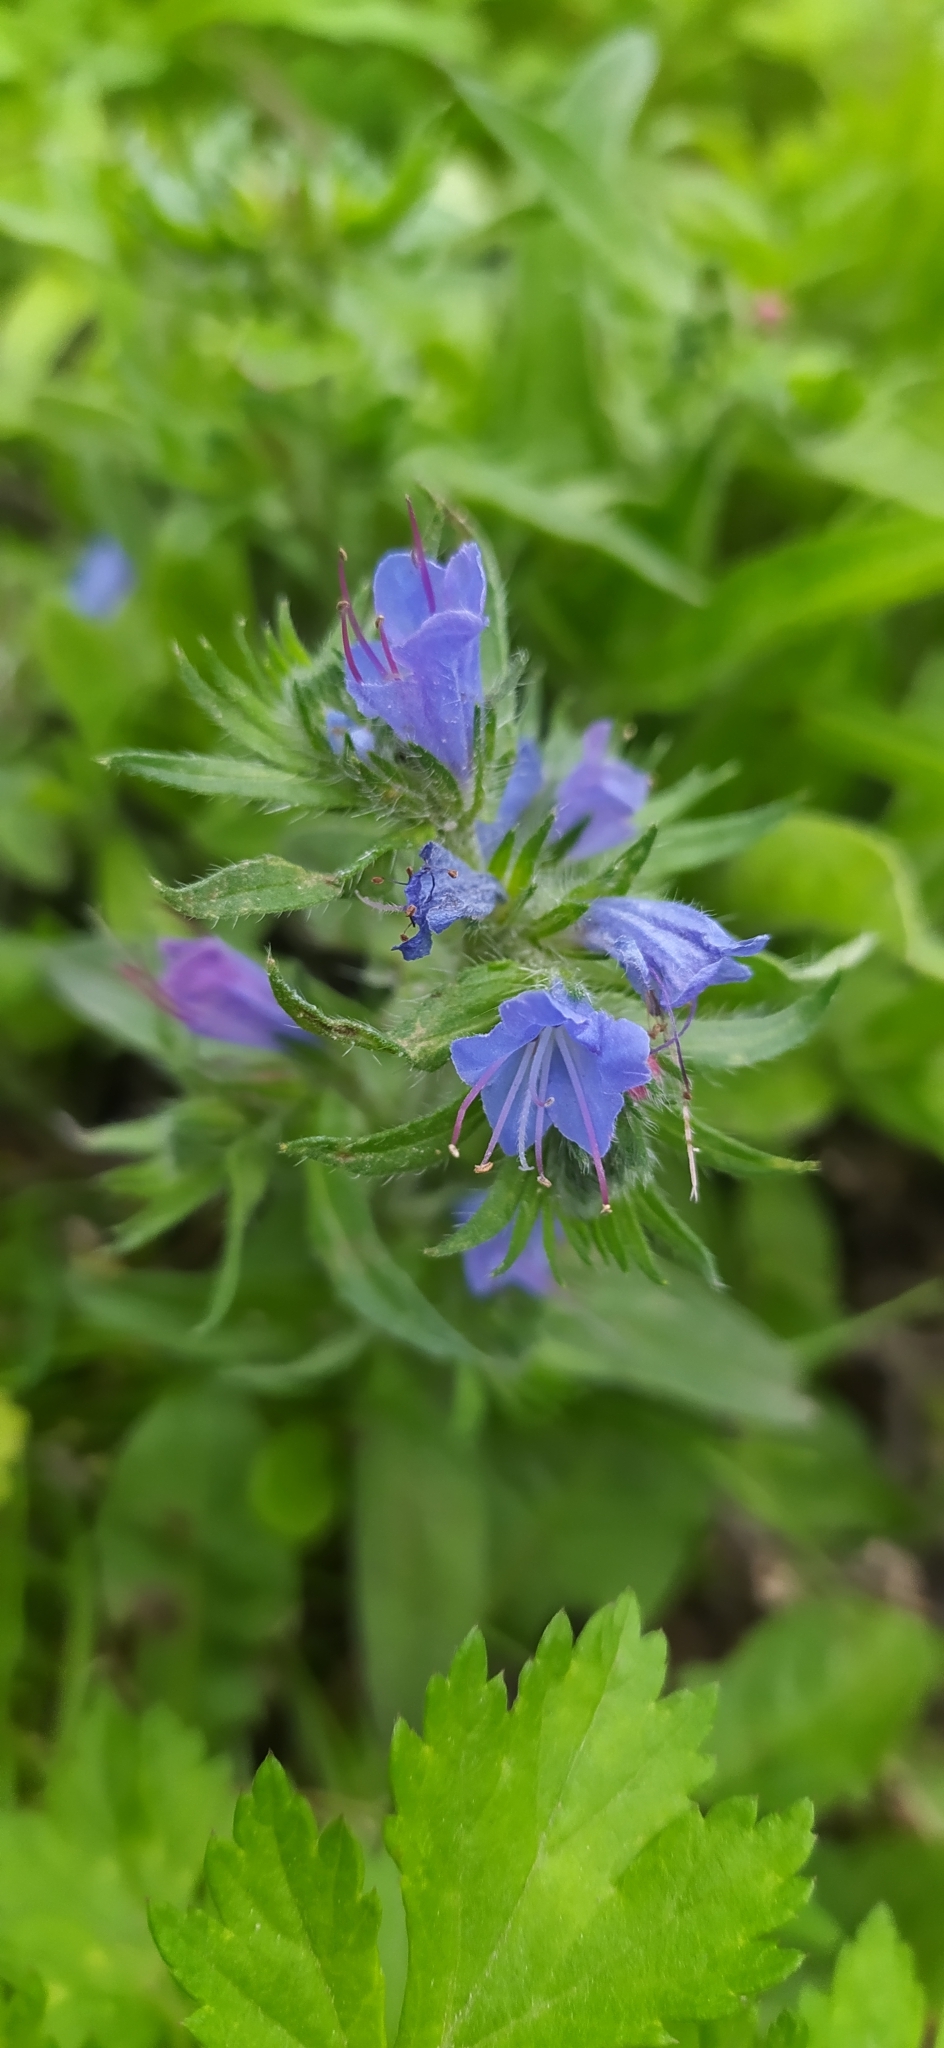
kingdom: Plantae
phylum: Tracheophyta
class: Magnoliopsida
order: Boraginales
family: Boraginaceae
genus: Echium
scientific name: Echium vulgare
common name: Common viper's bugloss
